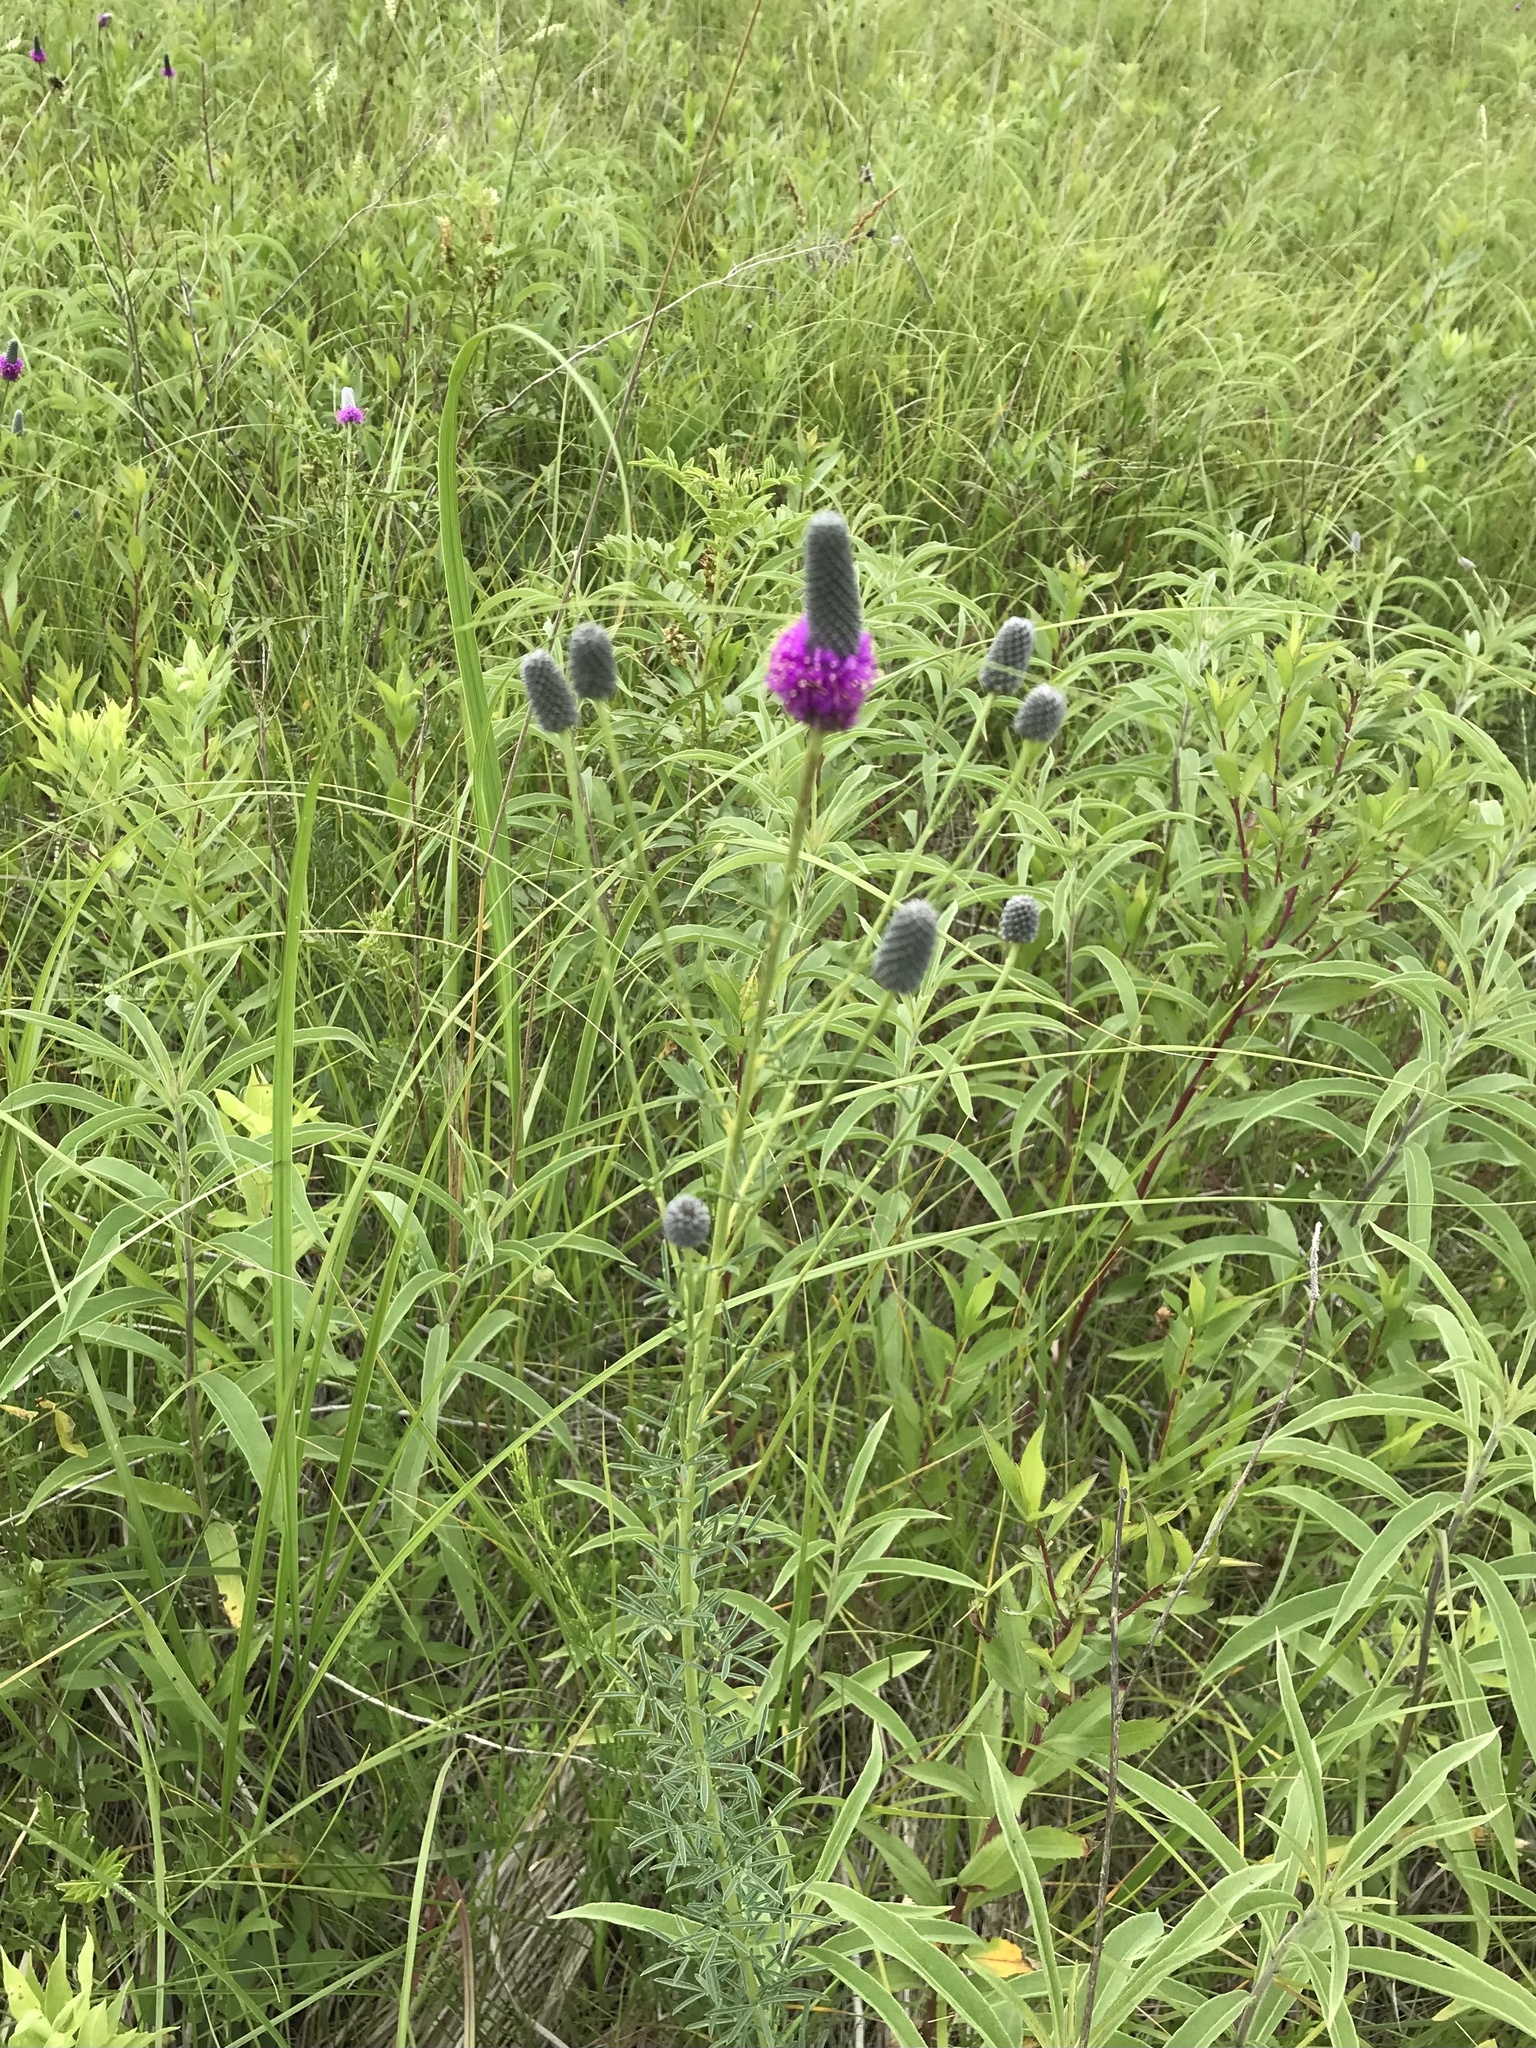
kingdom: Plantae
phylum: Tracheophyta
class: Magnoliopsida
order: Fabales
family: Fabaceae
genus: Dalea
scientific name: Dalea purpurea
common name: Purple prairie-clover
